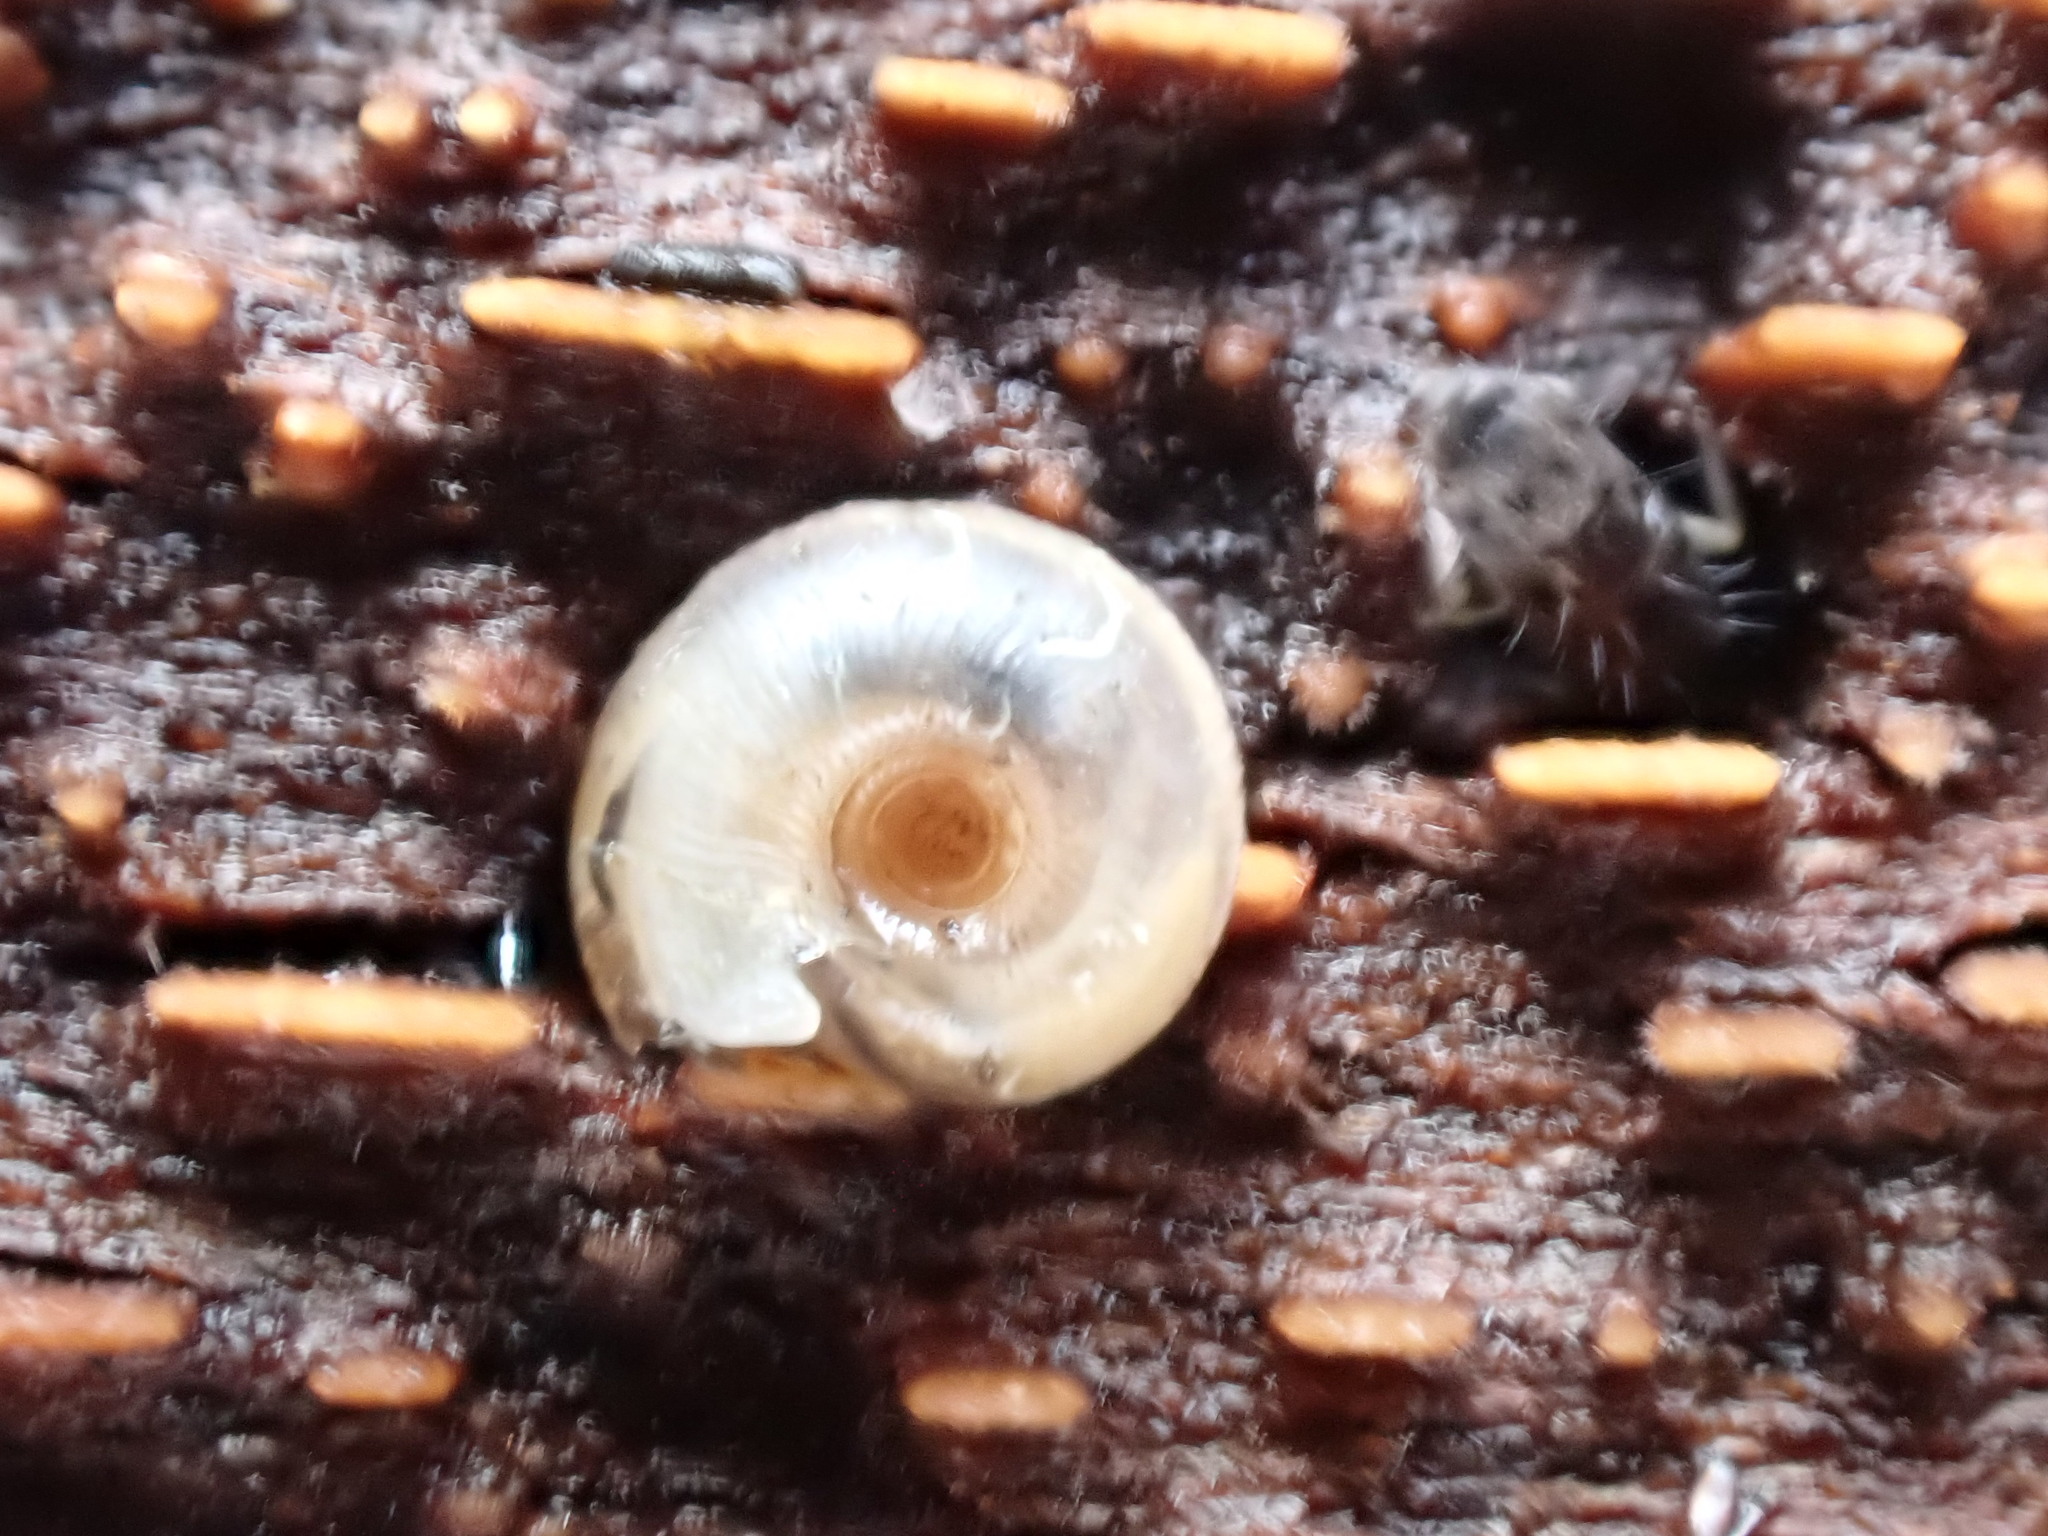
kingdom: Animalia
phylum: Mollusca
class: Gastropoda
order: Stylommatophora
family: Discidae
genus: Discus
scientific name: Discus rotundatus
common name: Rounded snail
